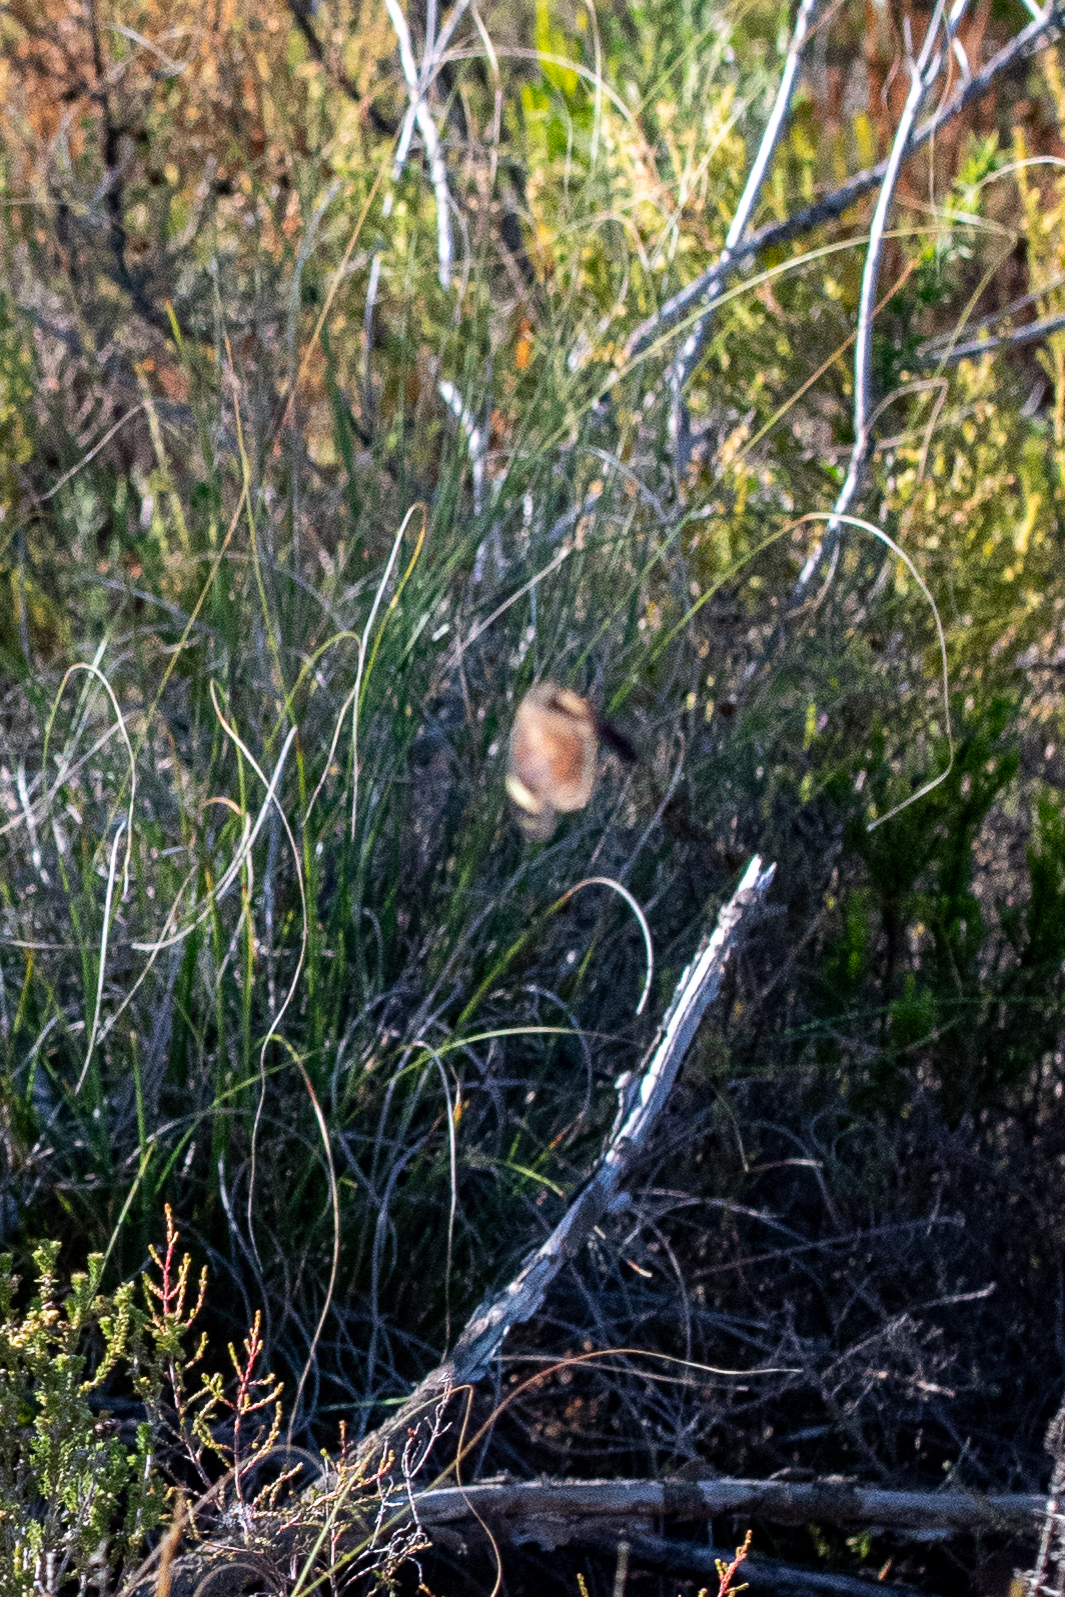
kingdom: Animalia
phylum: Arthropoda
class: Insecta
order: Lepidoptera
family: Nymphalidae
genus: Torynesis
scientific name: Torynesis mintha
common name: Mintha widow
